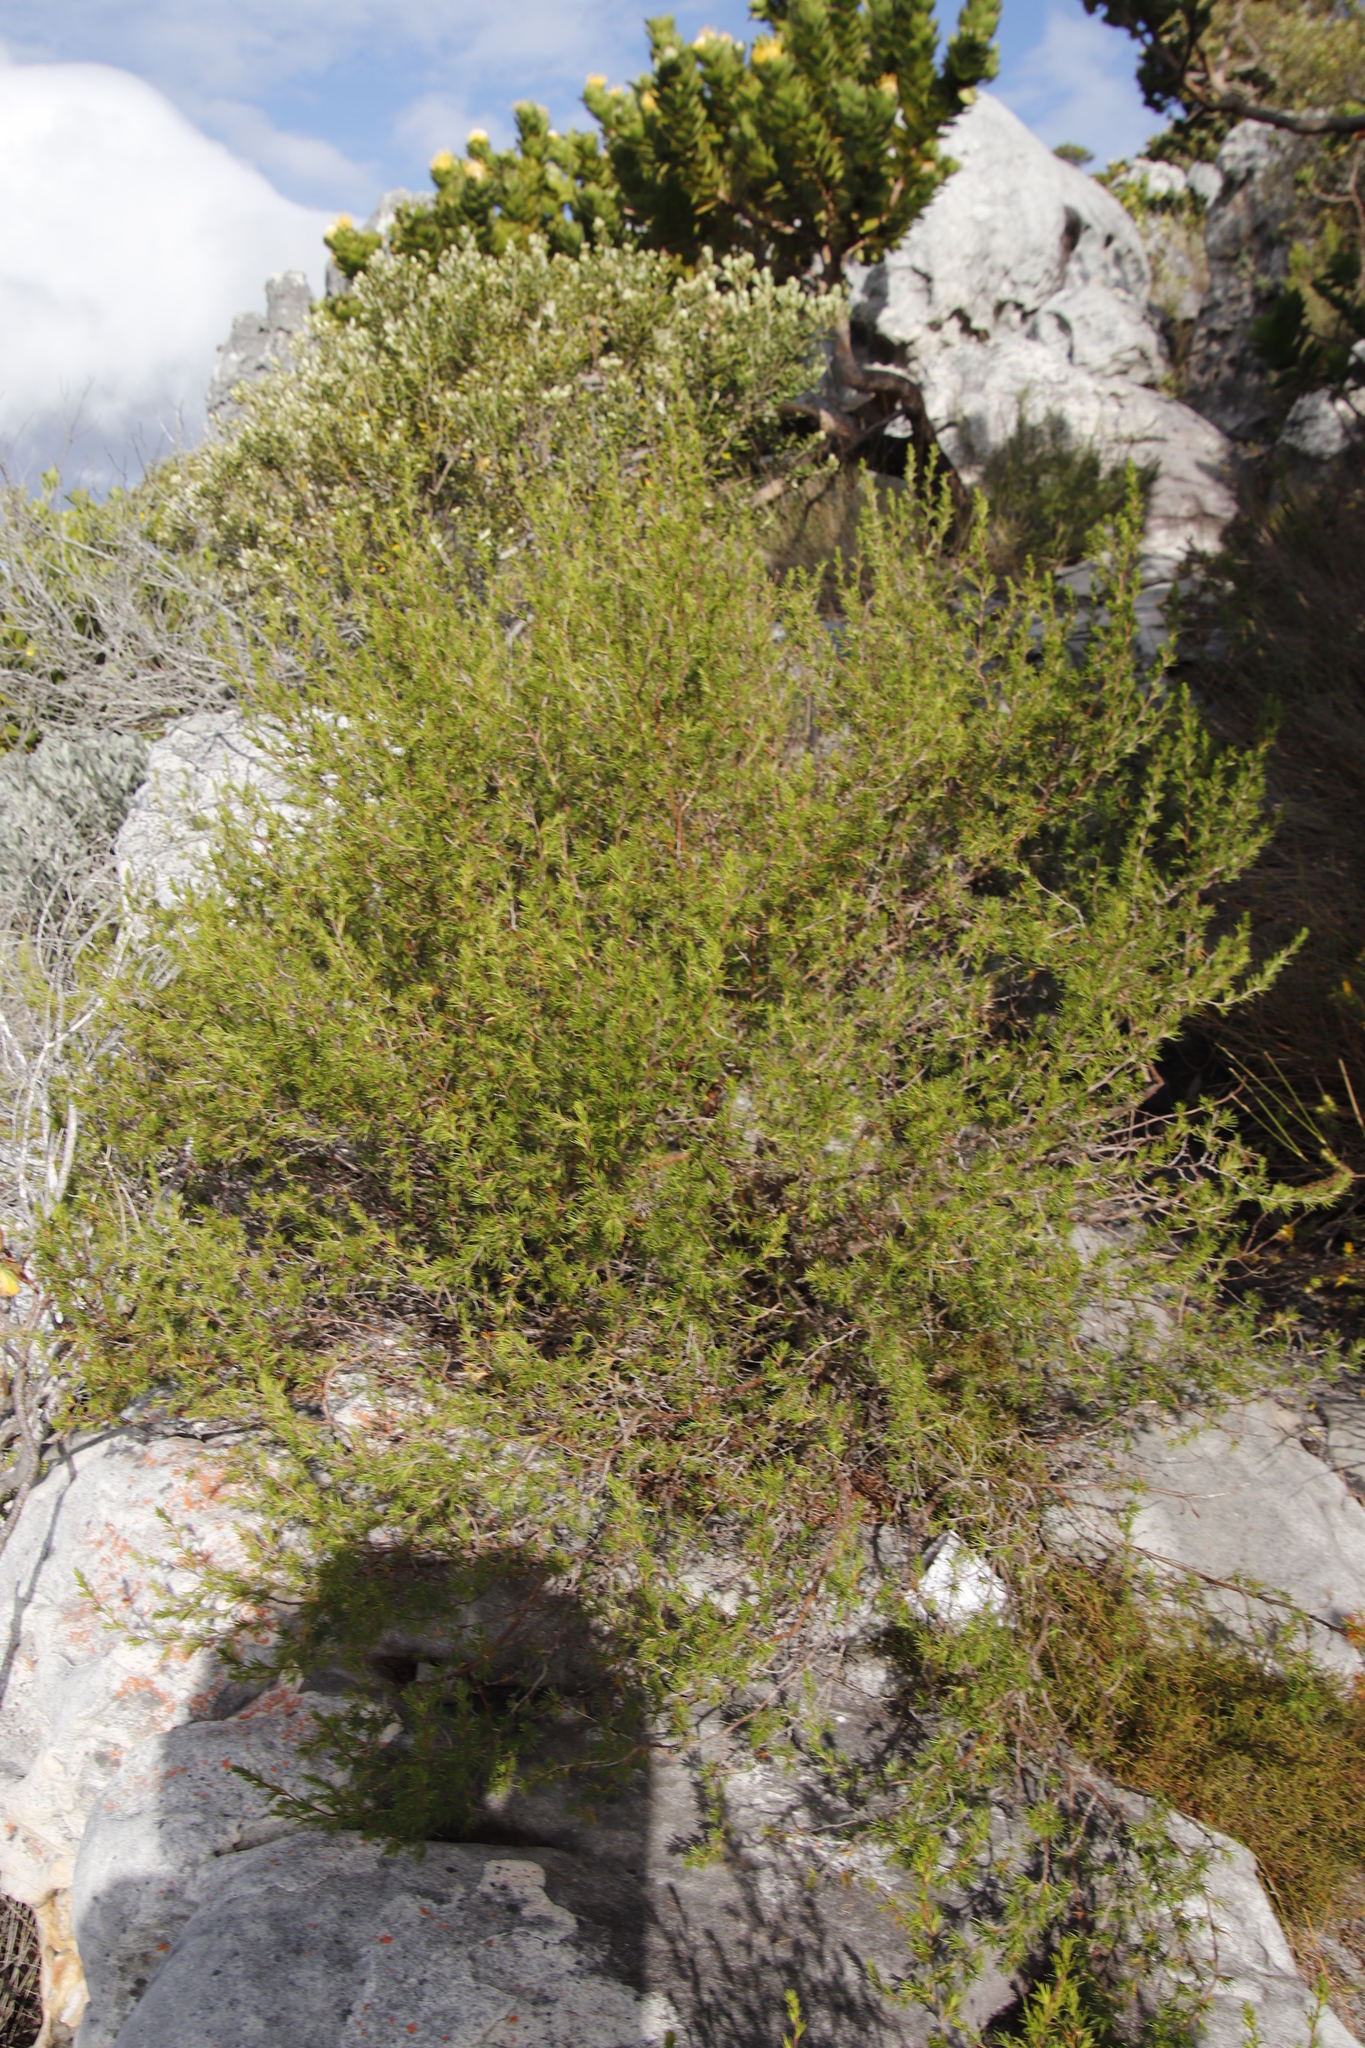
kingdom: Plantae
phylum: Tracheophyta
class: Magnoliopsida
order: Rosales
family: Rosaceae
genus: Cliffortia
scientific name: Cliffortia atrata
